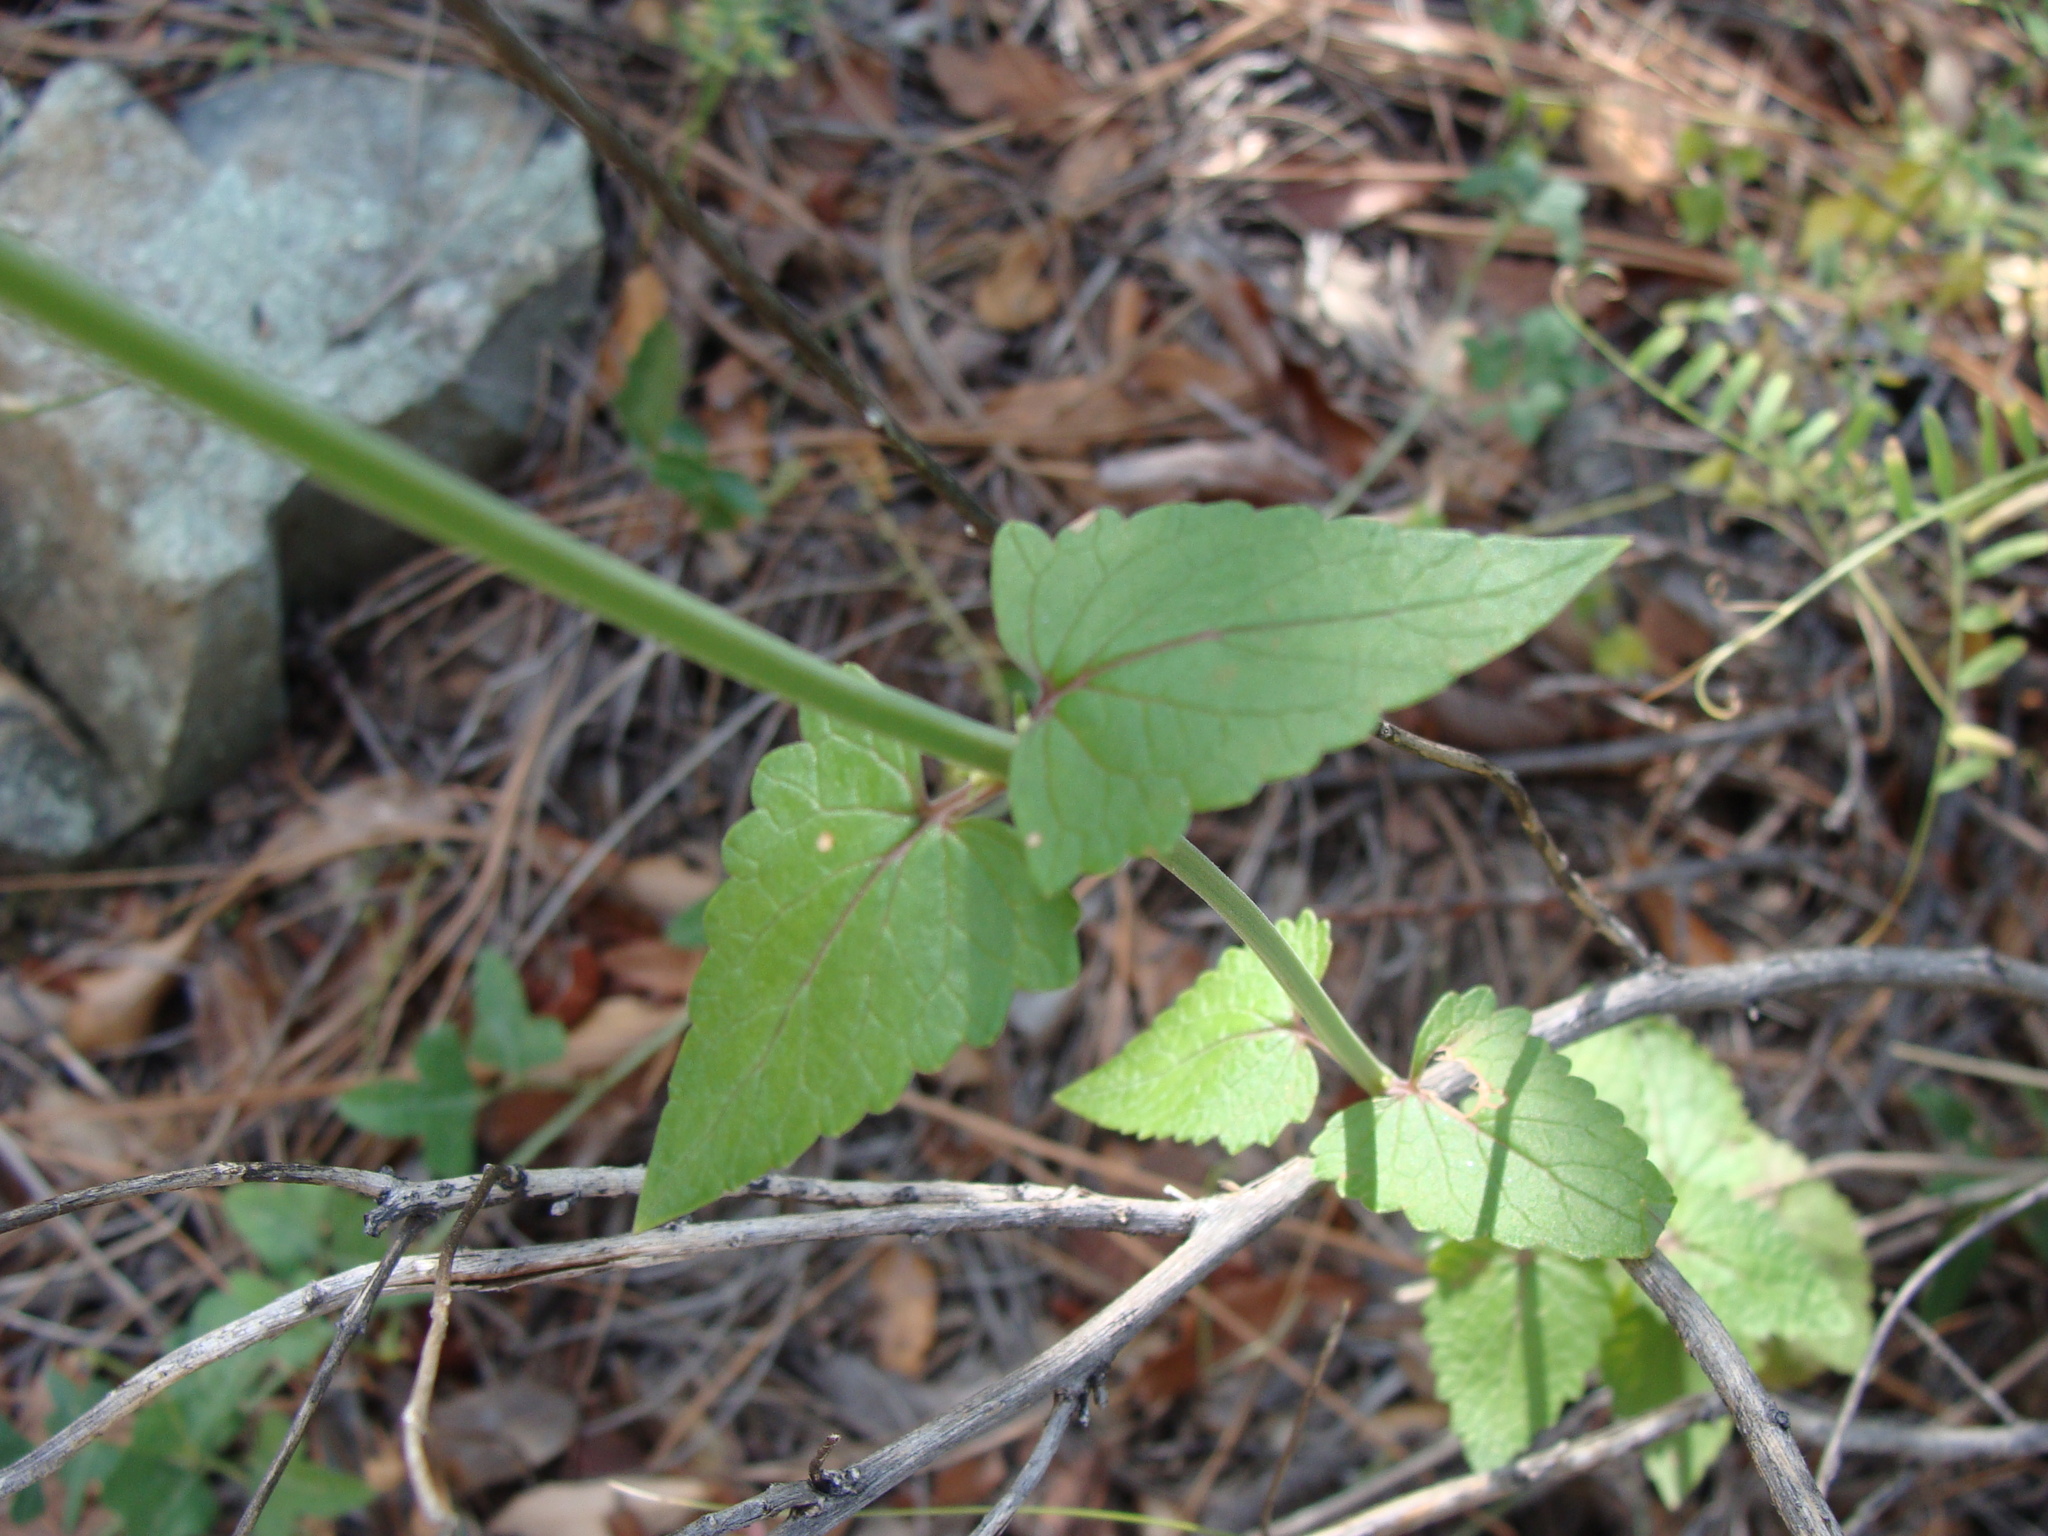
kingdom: Plantae
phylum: Tracheophyta
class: Magnoliopsida
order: Lamiales
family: Lamiaceae
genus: Agastache
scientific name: Agastache pallida
